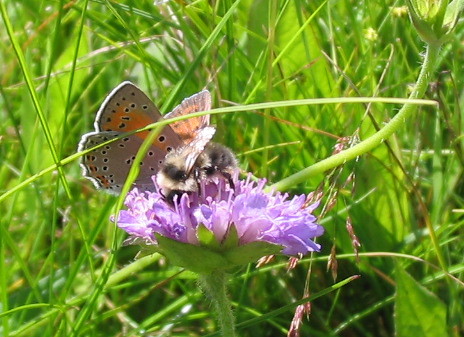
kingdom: Animalia
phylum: Arthropoda
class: Insecta
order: Lepidoptera
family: Lycaenidae
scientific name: Lycaenidae
